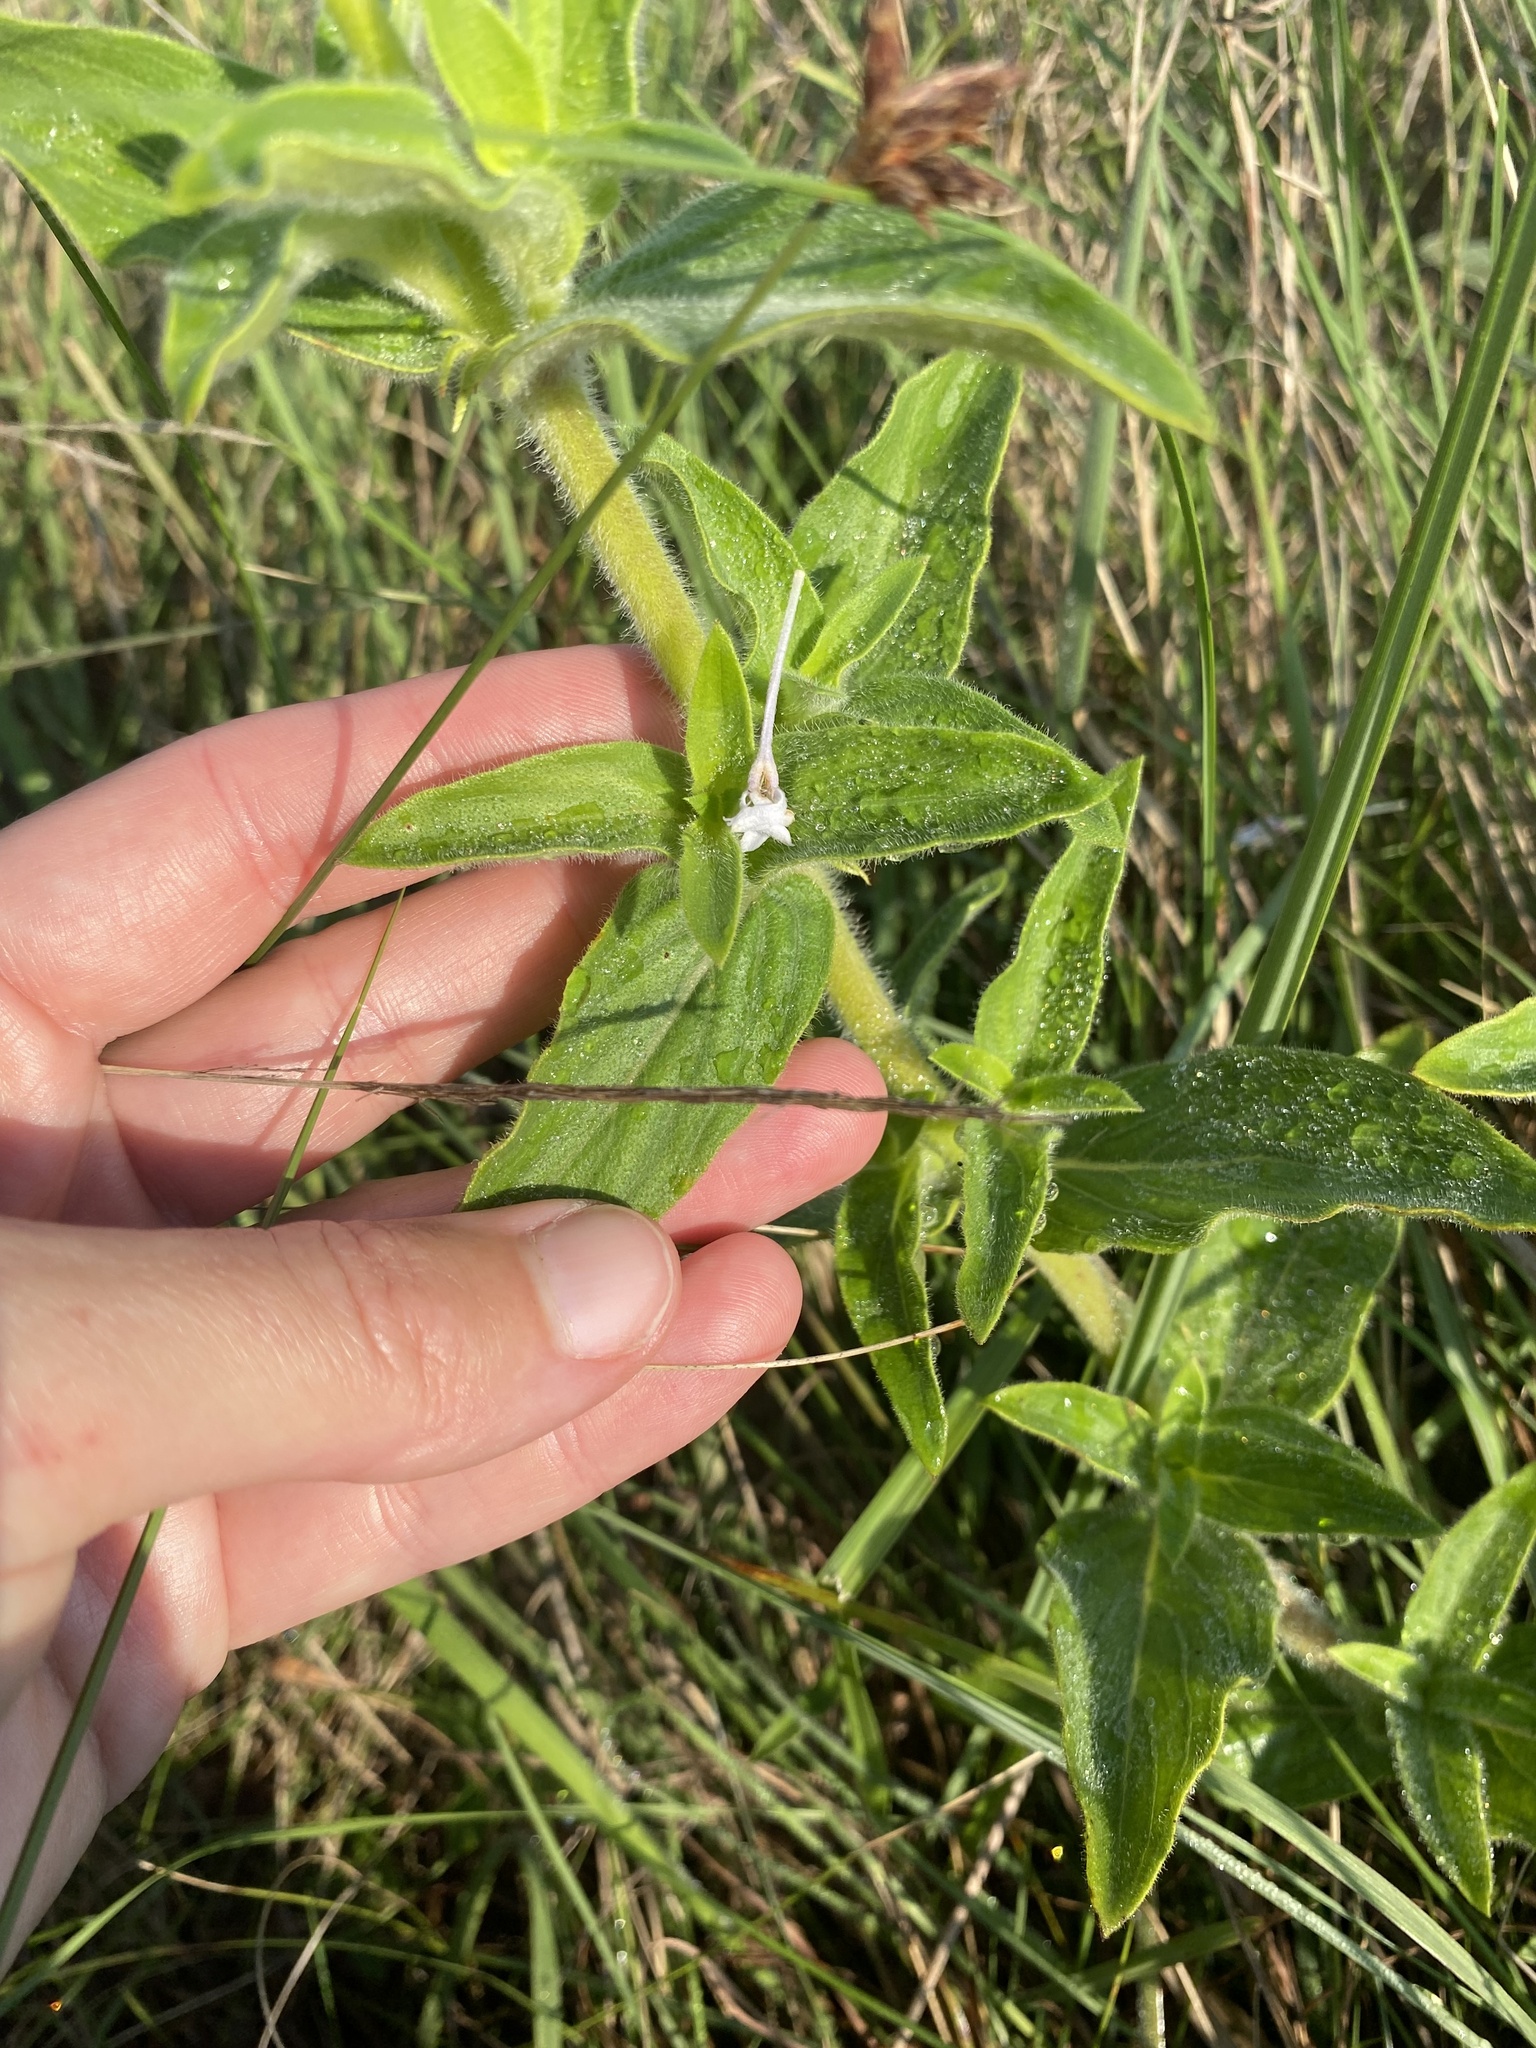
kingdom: Plantae
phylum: Tracheophyta
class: Magnoliopsida
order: Gentianales
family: Rubiaceae
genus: Pentanisia
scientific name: Pentanisia prunelloides
